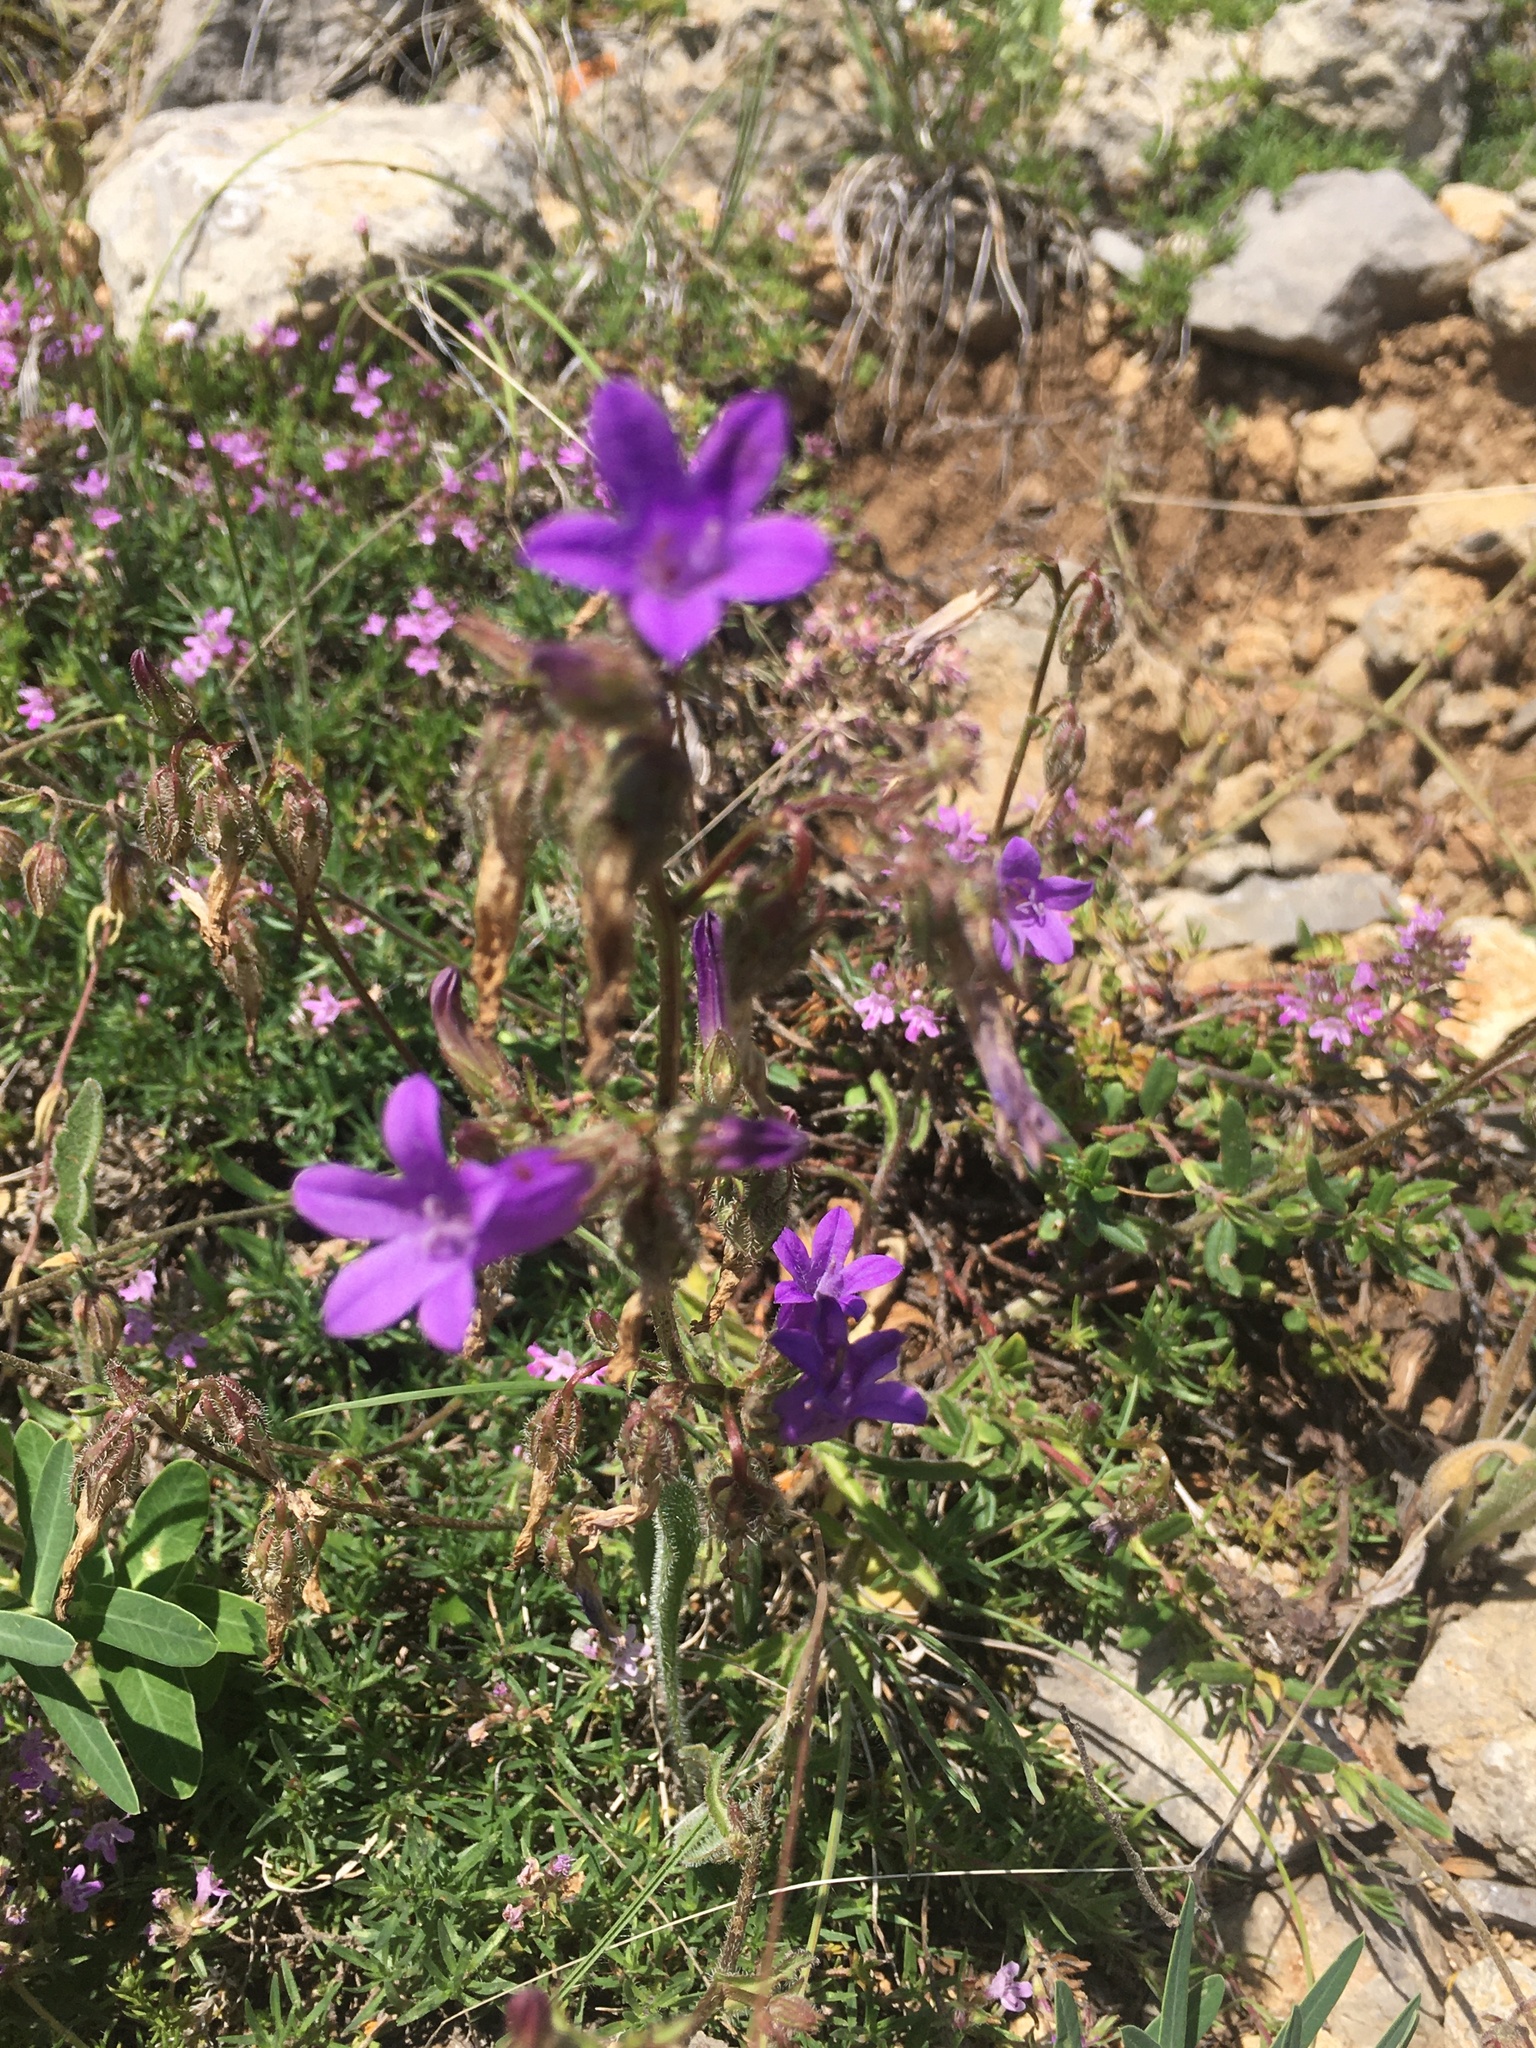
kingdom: Plantae
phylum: Tracheophyta
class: Magnoliopsida
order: Asterales
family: Campanulaceae
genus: Campanula
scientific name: Campanula sibirica
